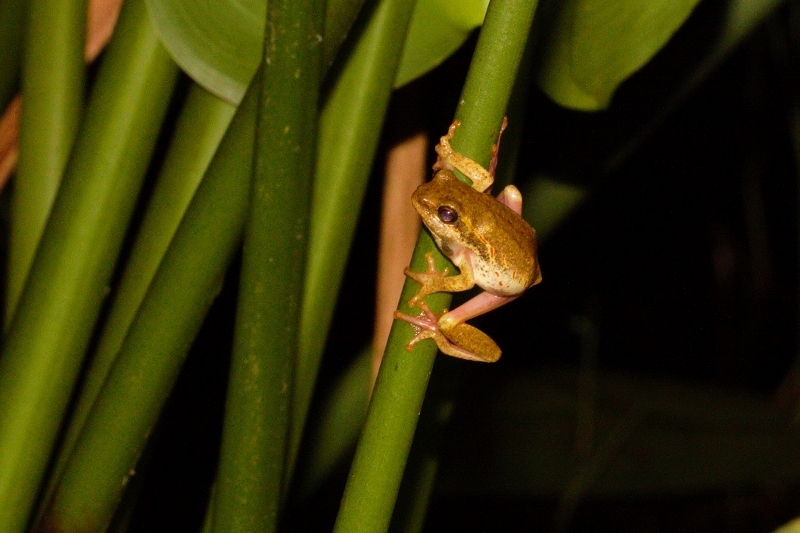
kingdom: Animalia
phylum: Chordata
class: Amphibia
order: Anura
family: Hyperoliidae
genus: Hyperolius
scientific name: Hyperolius marmoratus
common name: Painted reed frog
